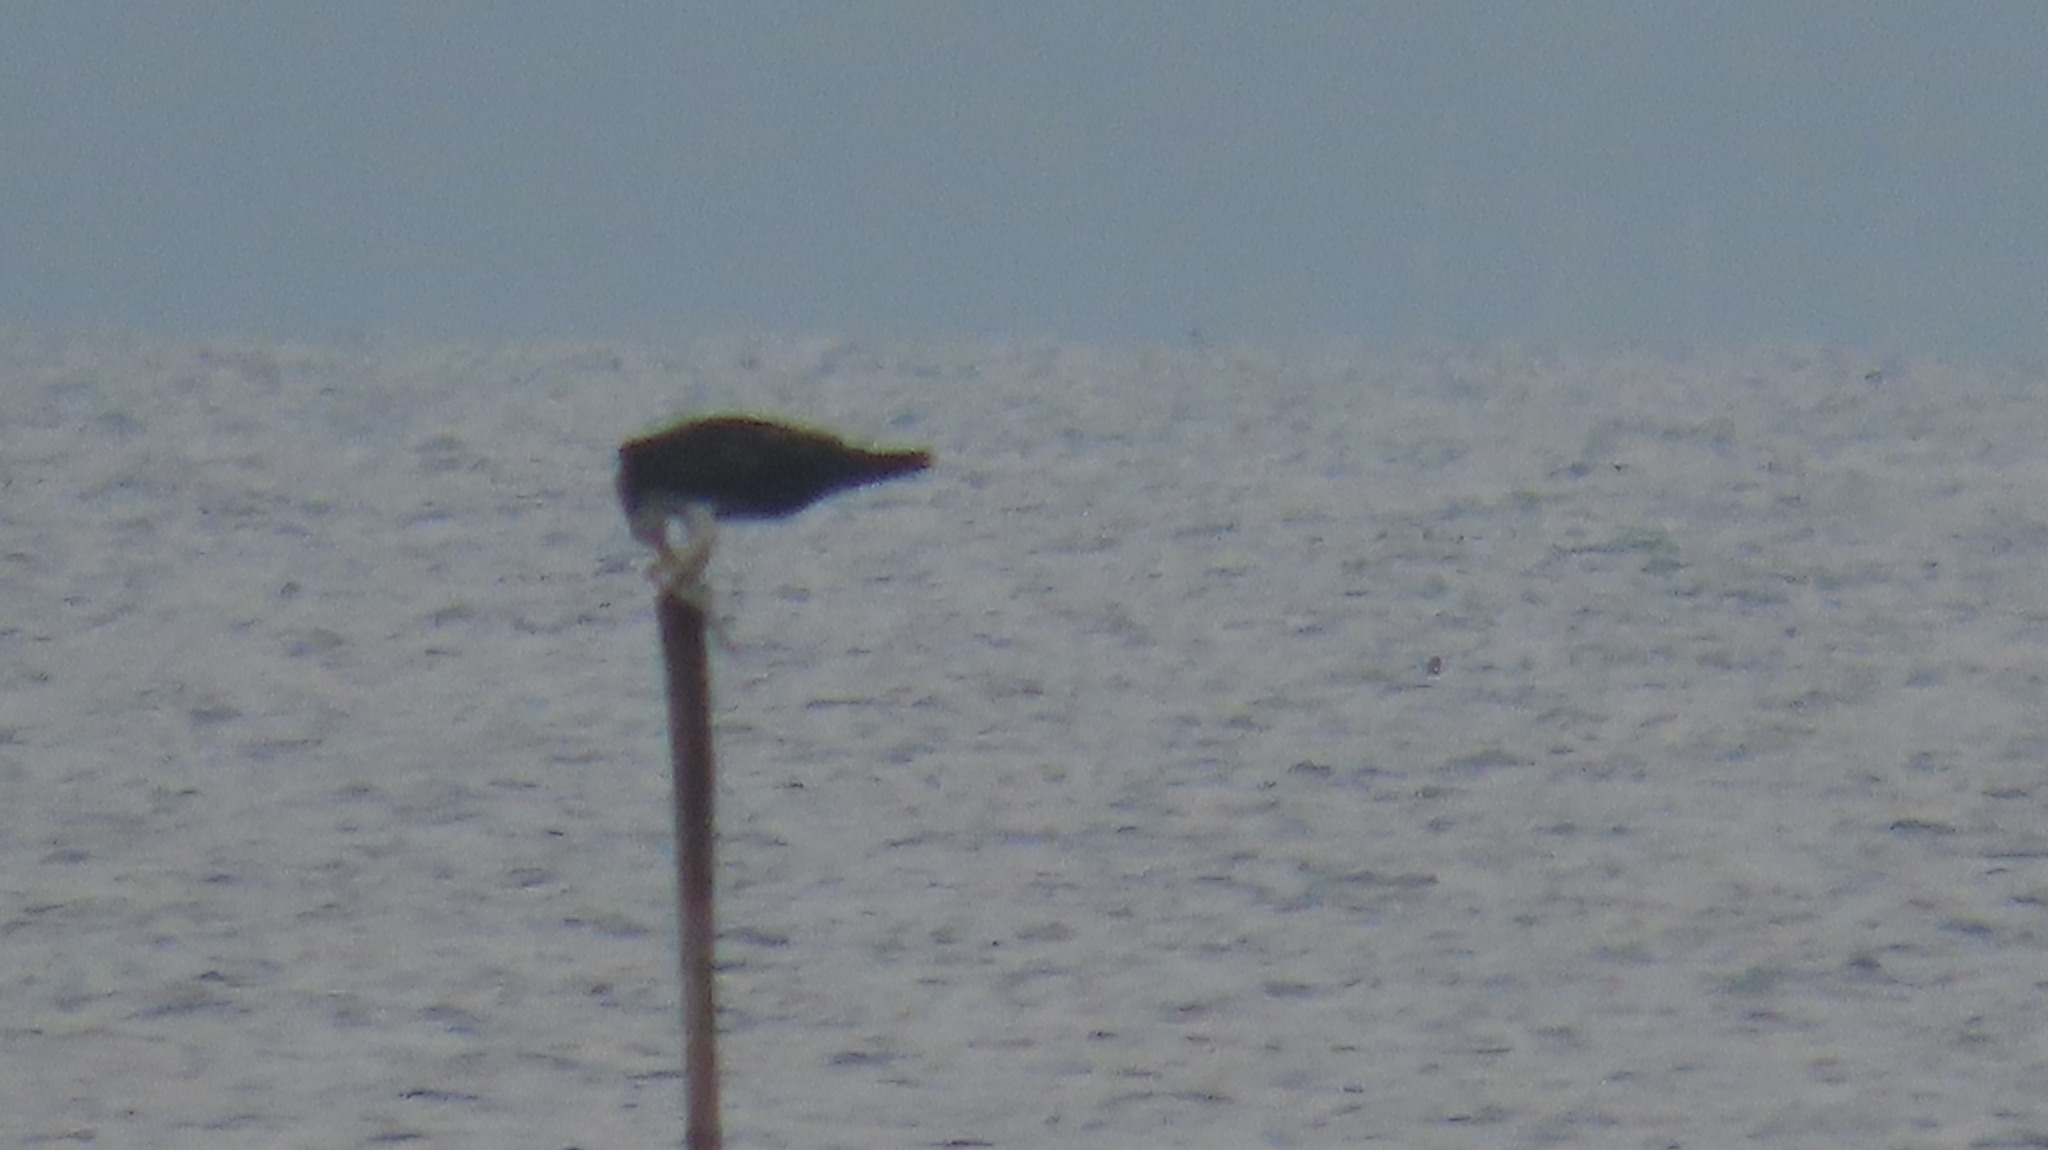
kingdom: Animalia
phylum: Chordata
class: Aves
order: Accipitriformes
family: Pandionidae
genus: Pandion
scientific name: Pandion haliaetus
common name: Osprey
